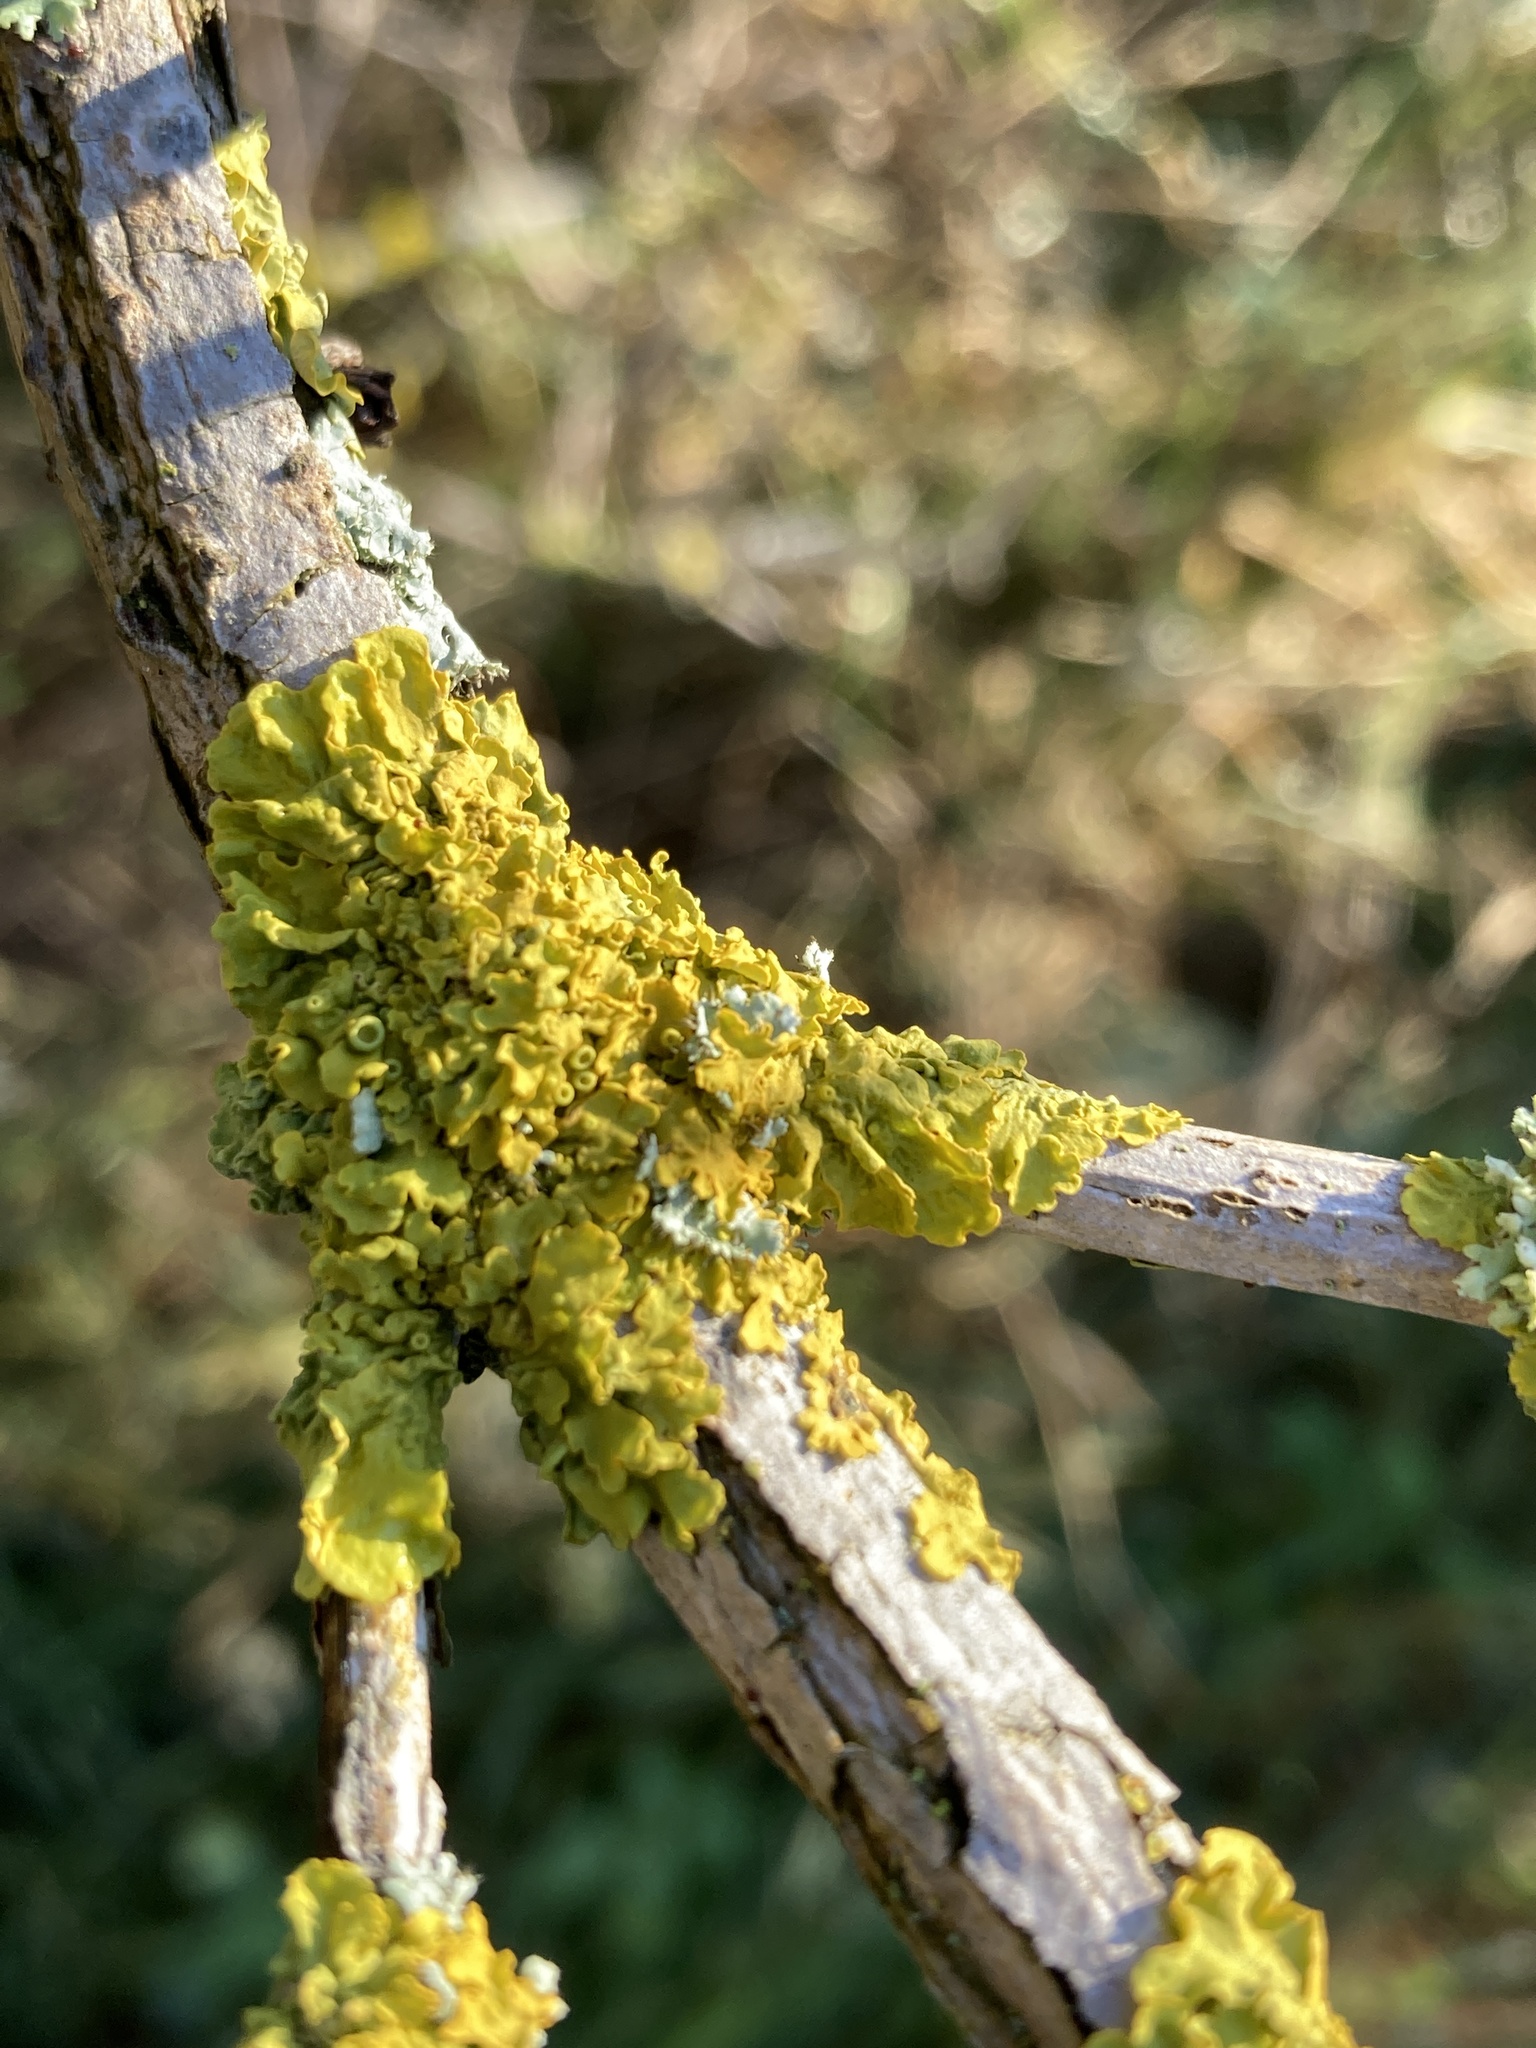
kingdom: Fungi
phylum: Ascomycota
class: Lecanoromycetes
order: Teloschistales
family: Teloschistaceae
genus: Xanthoria
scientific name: Xanthoria parietina
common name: Common orange lichen
